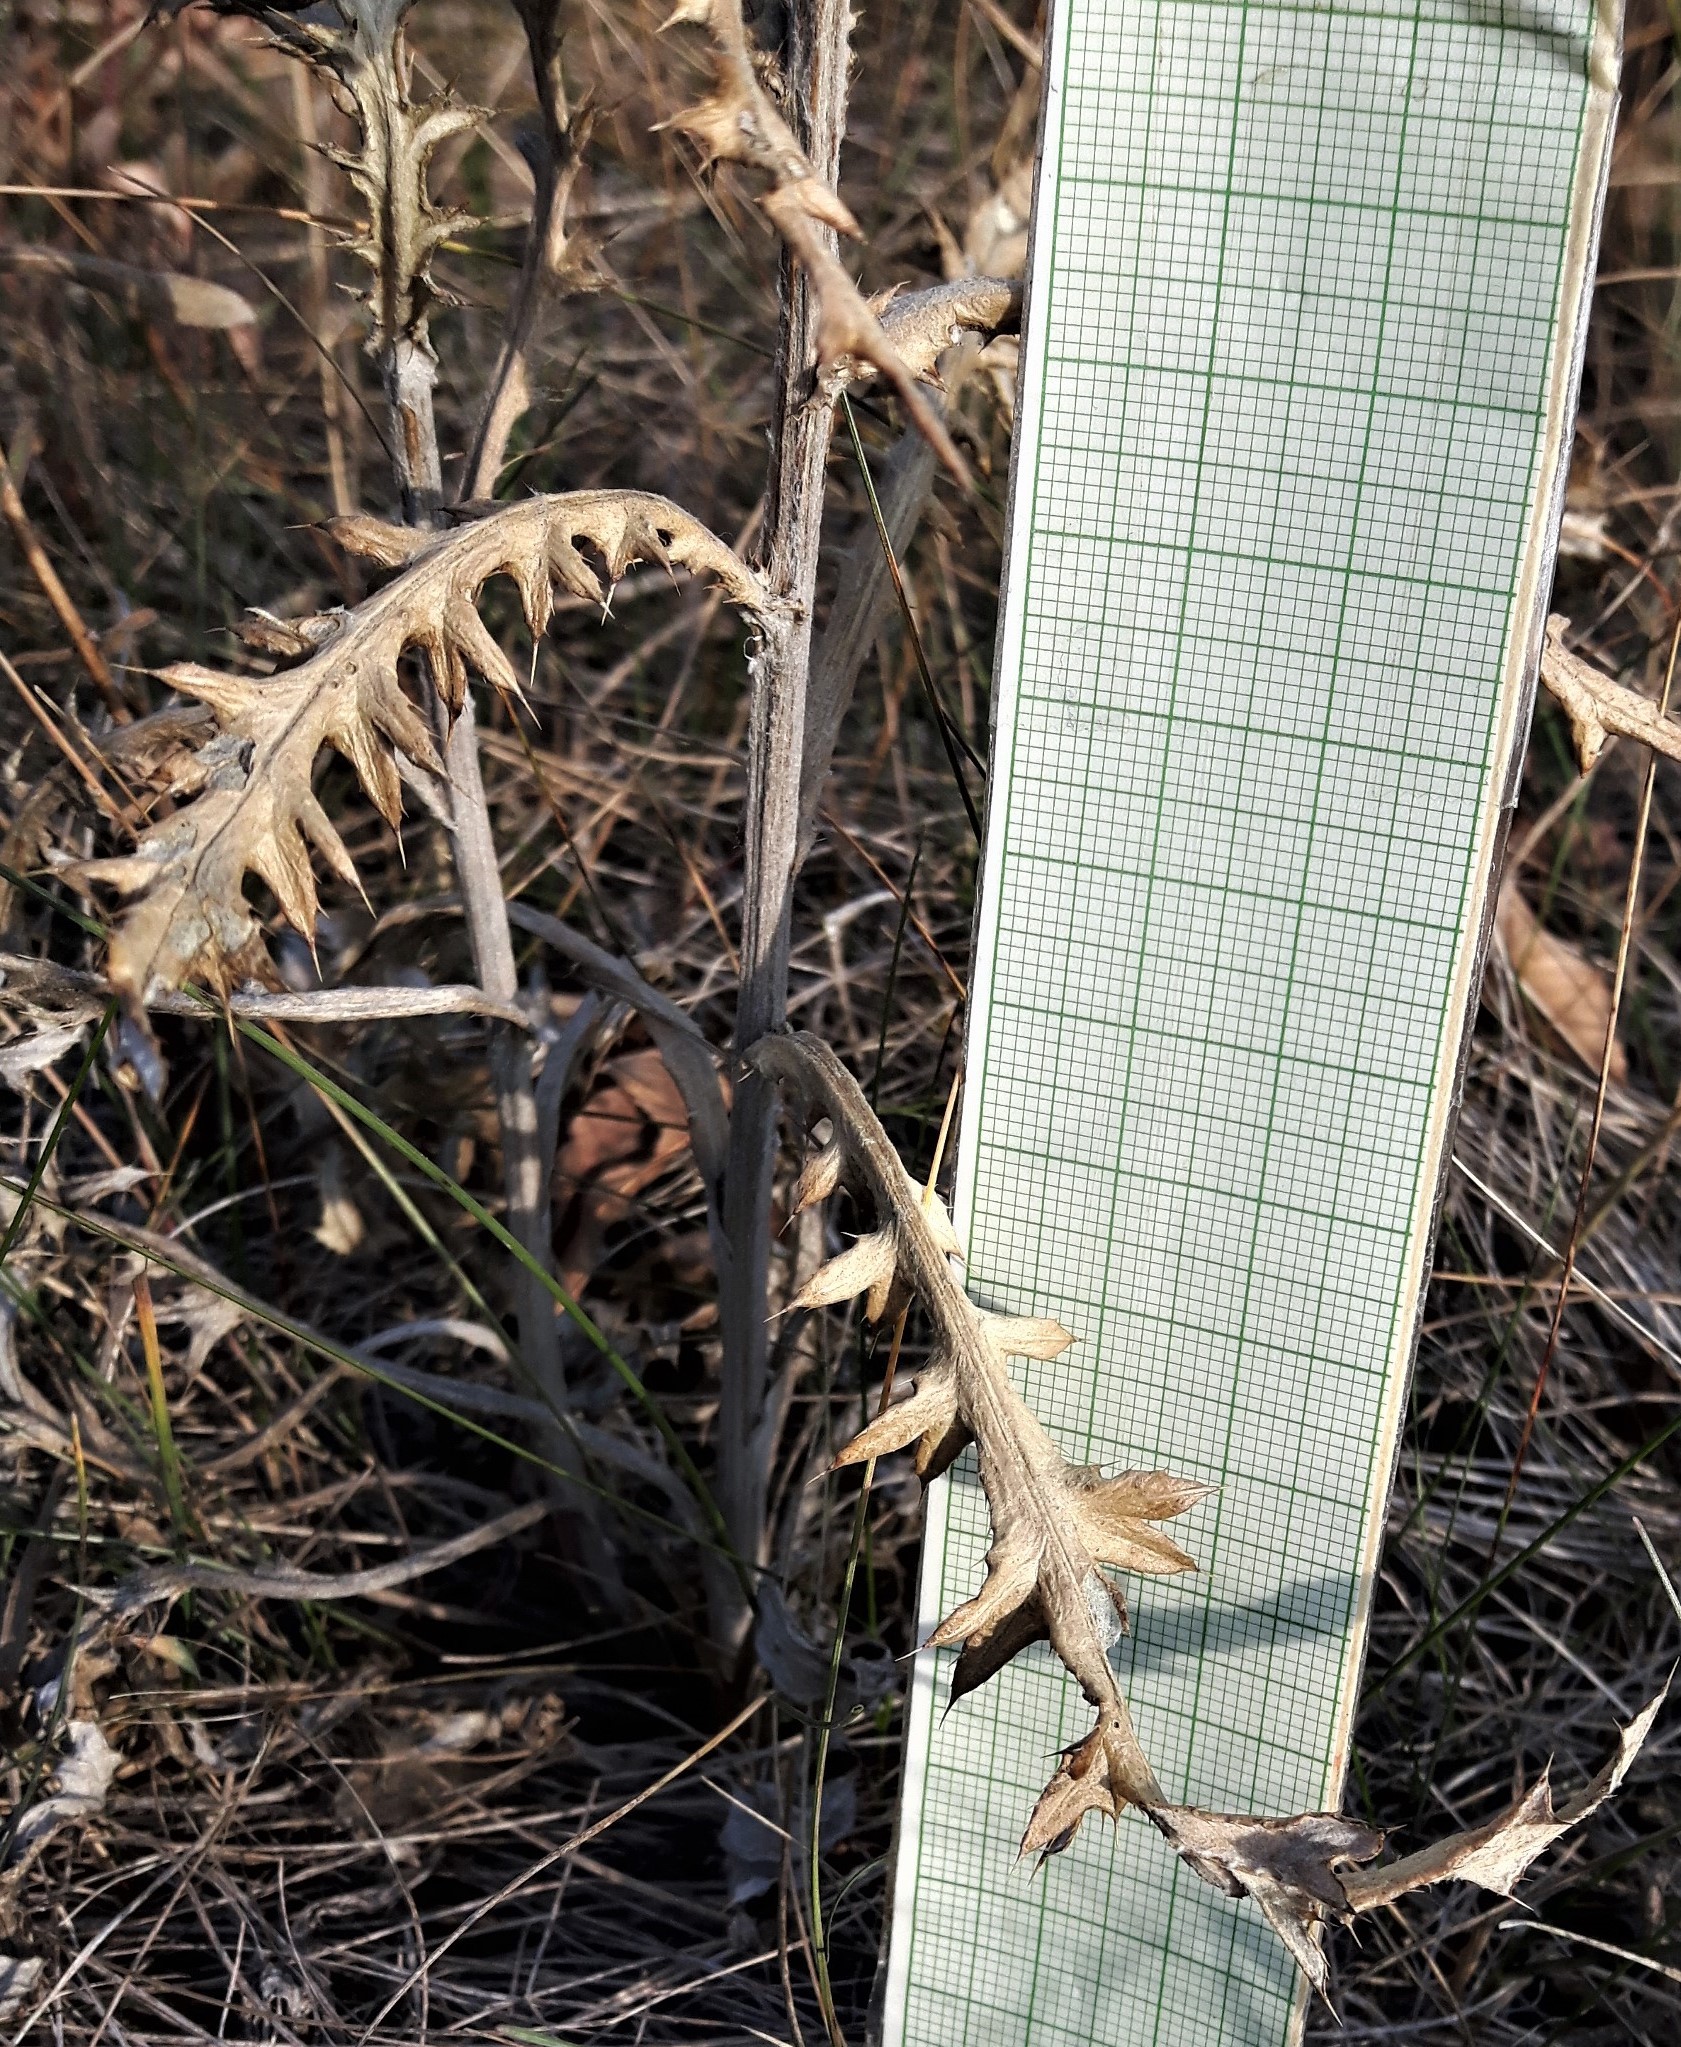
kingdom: Plantae
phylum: Tracheophyta
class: Magnoliopsida
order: Asterales
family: Asteraceae
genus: Cirsium
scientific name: Cirsium flodmanii
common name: Flodman's thistle
